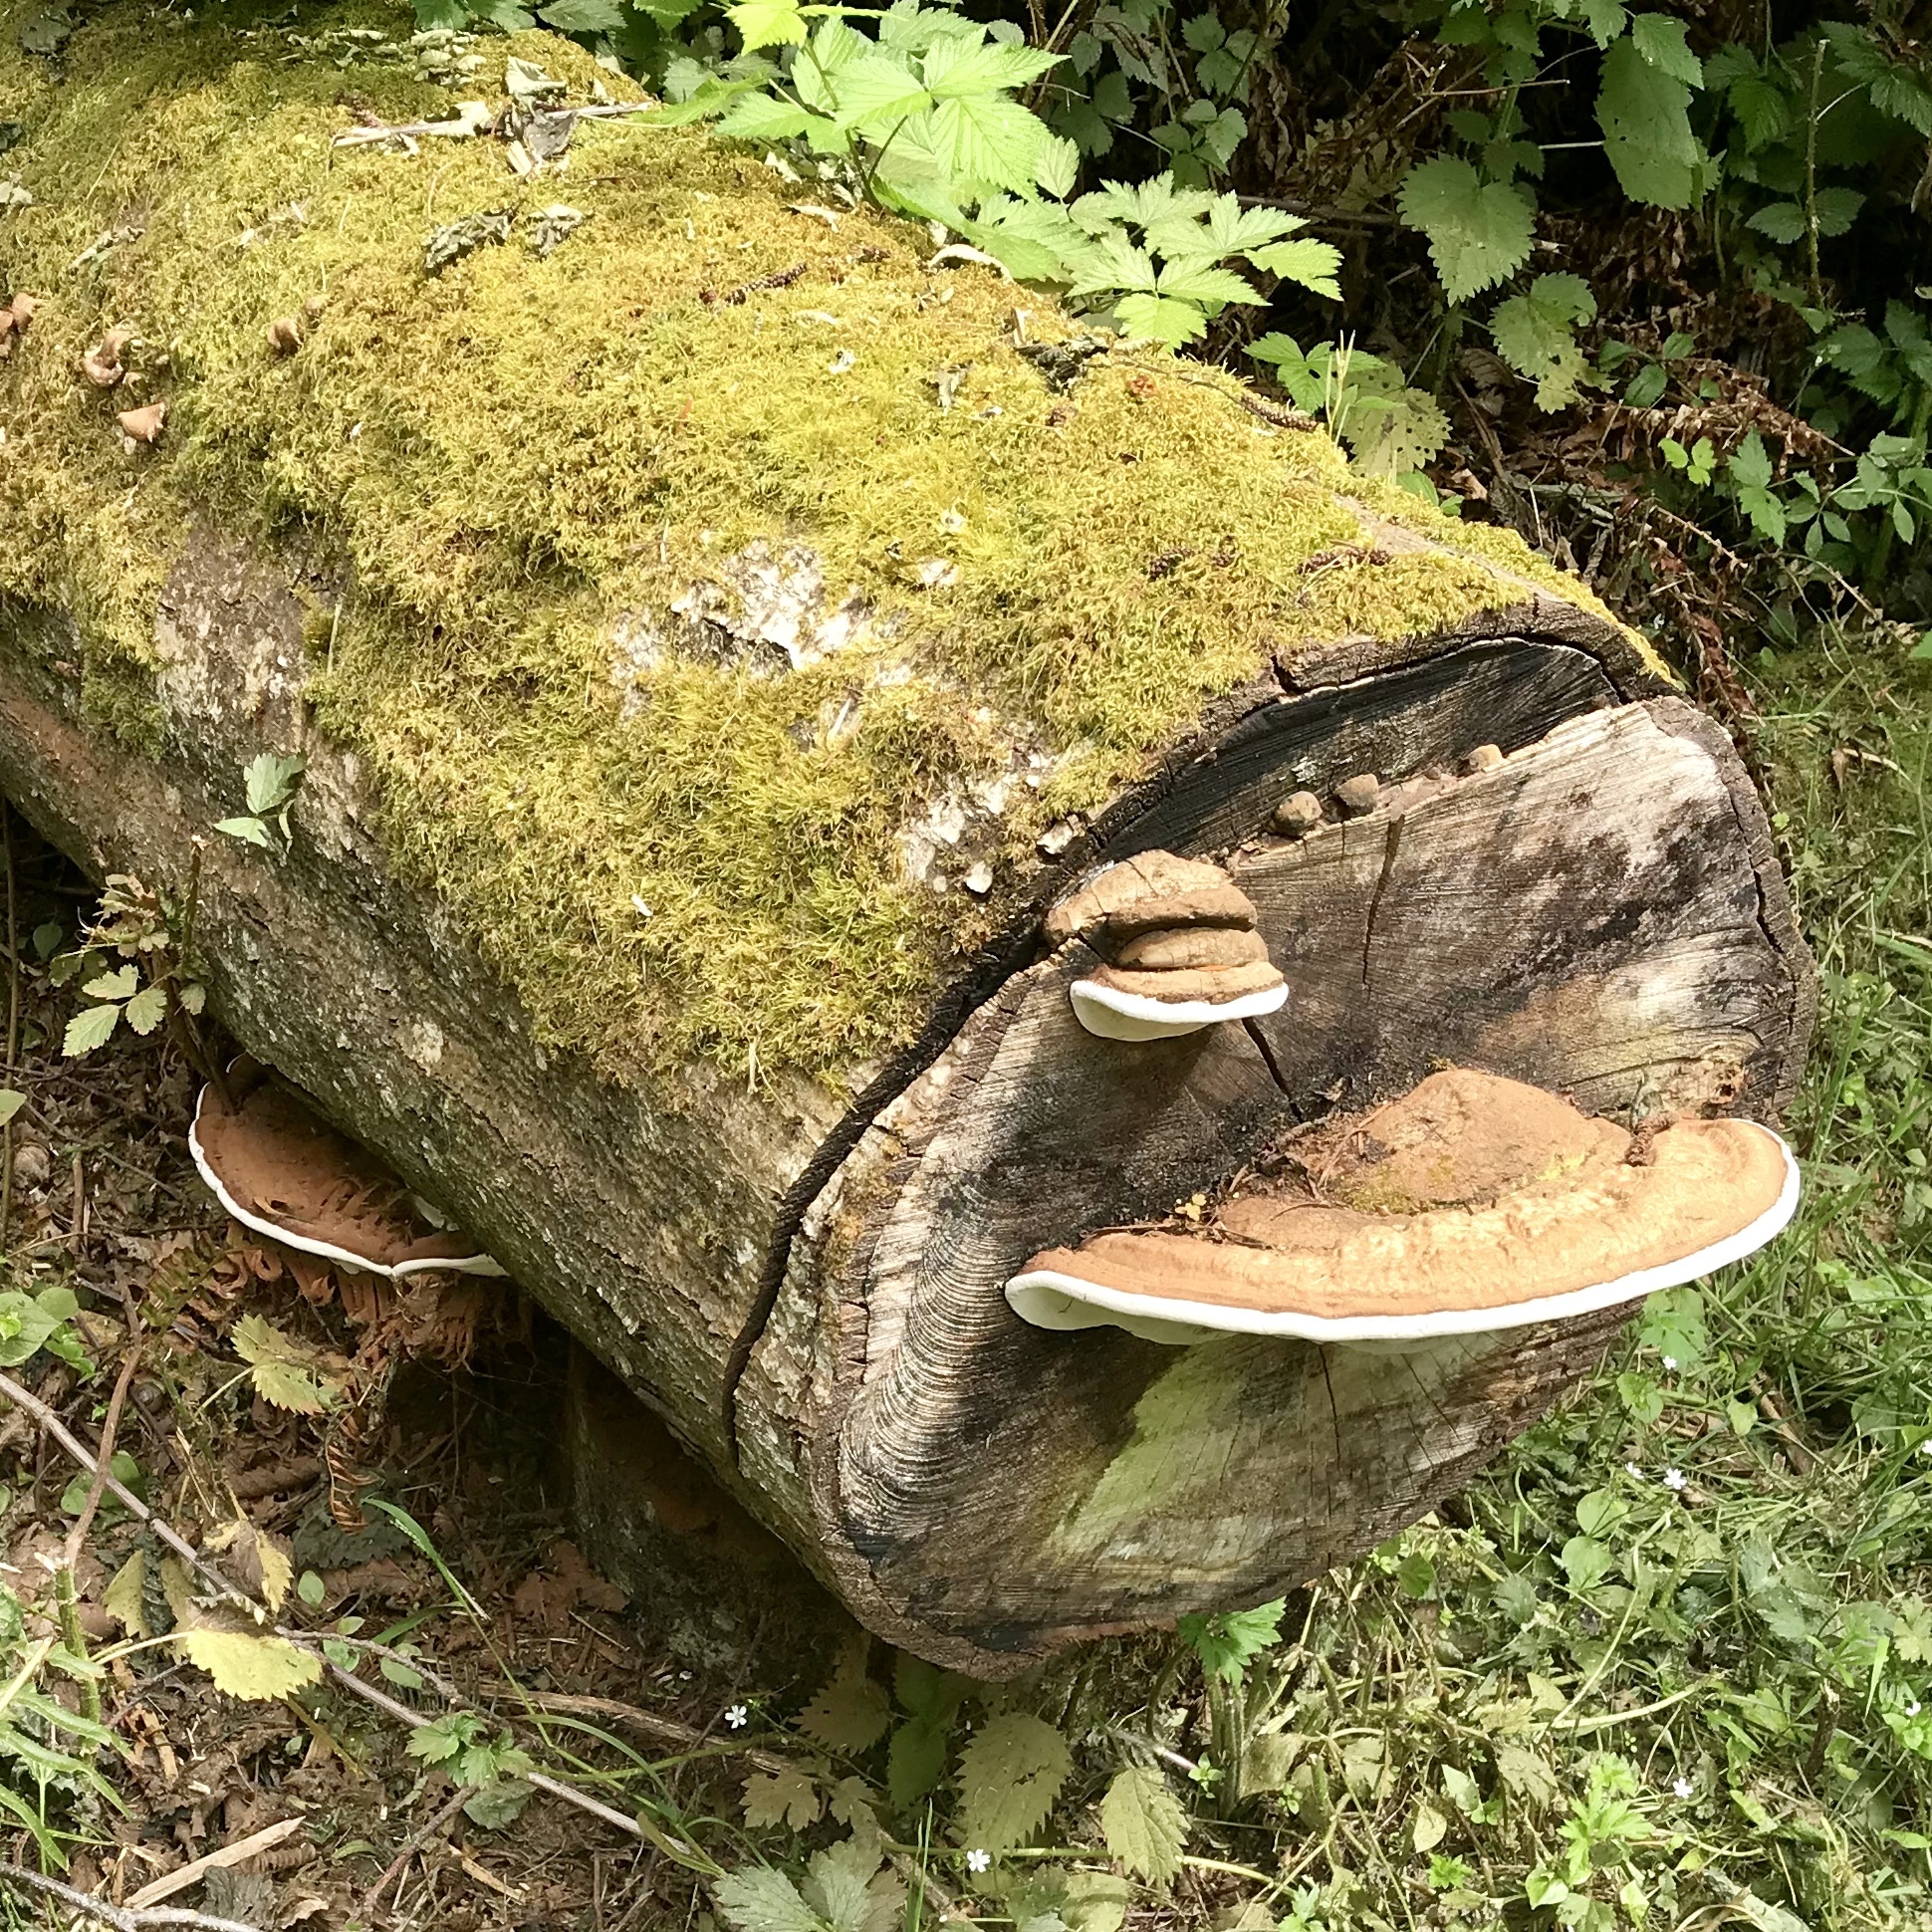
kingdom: Fungi
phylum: Basidiomycota
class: Agaricomycetes
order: Polyporales
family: Polyporaceae
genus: Ganoderma
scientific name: Ganoderma applanatum
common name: Artist's bracket
